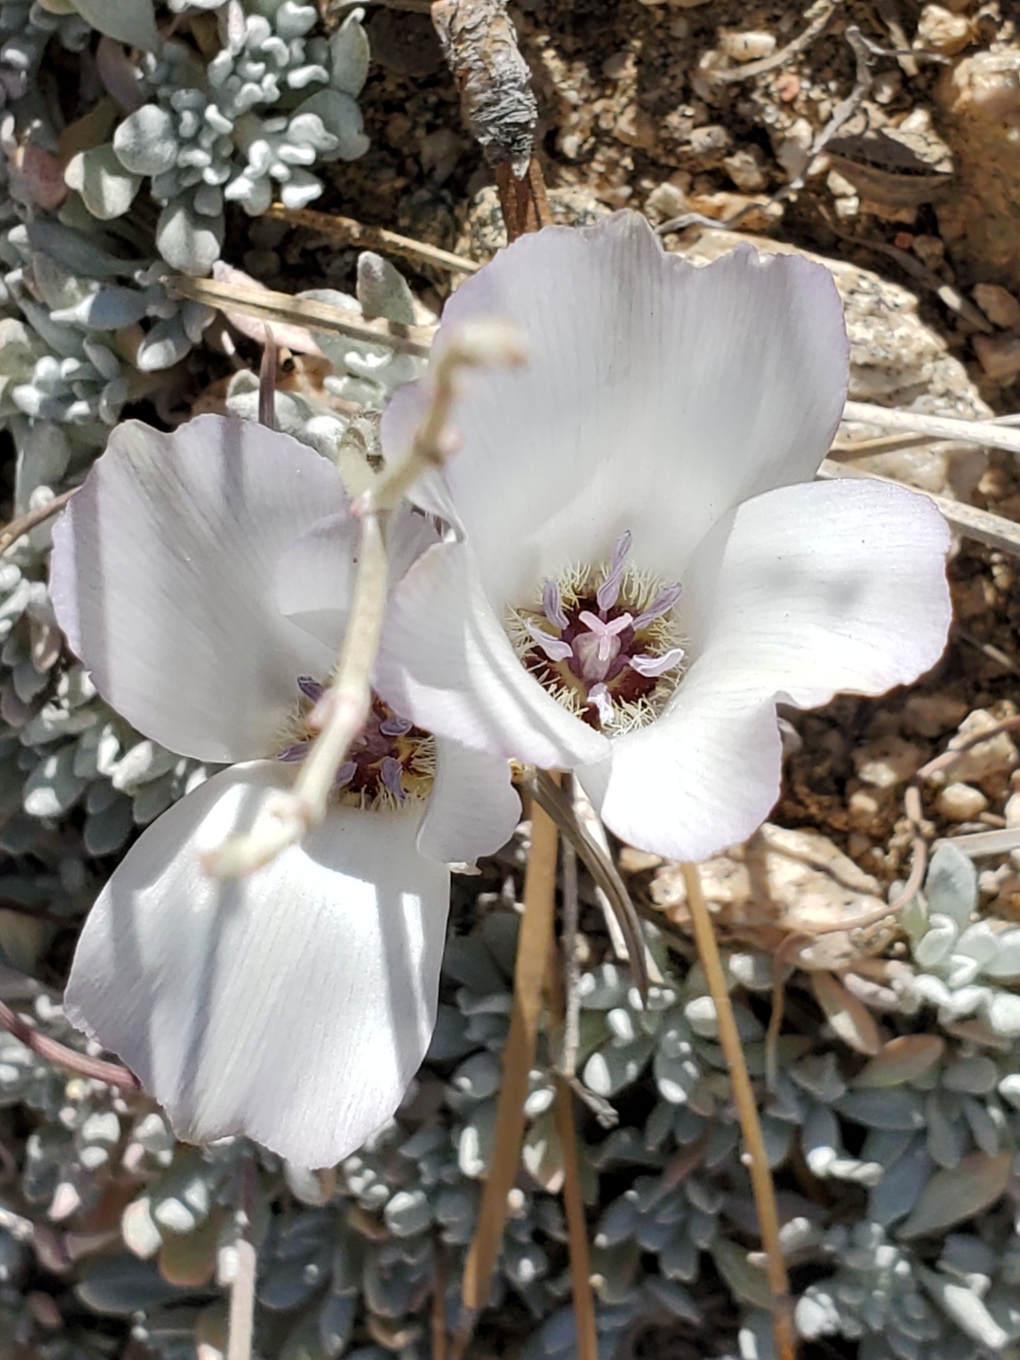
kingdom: Plantae
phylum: Tracheophyta
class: Liliopsida
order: Liliales
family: Liliaceae
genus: Calochortus
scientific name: Calochortus invenustus
